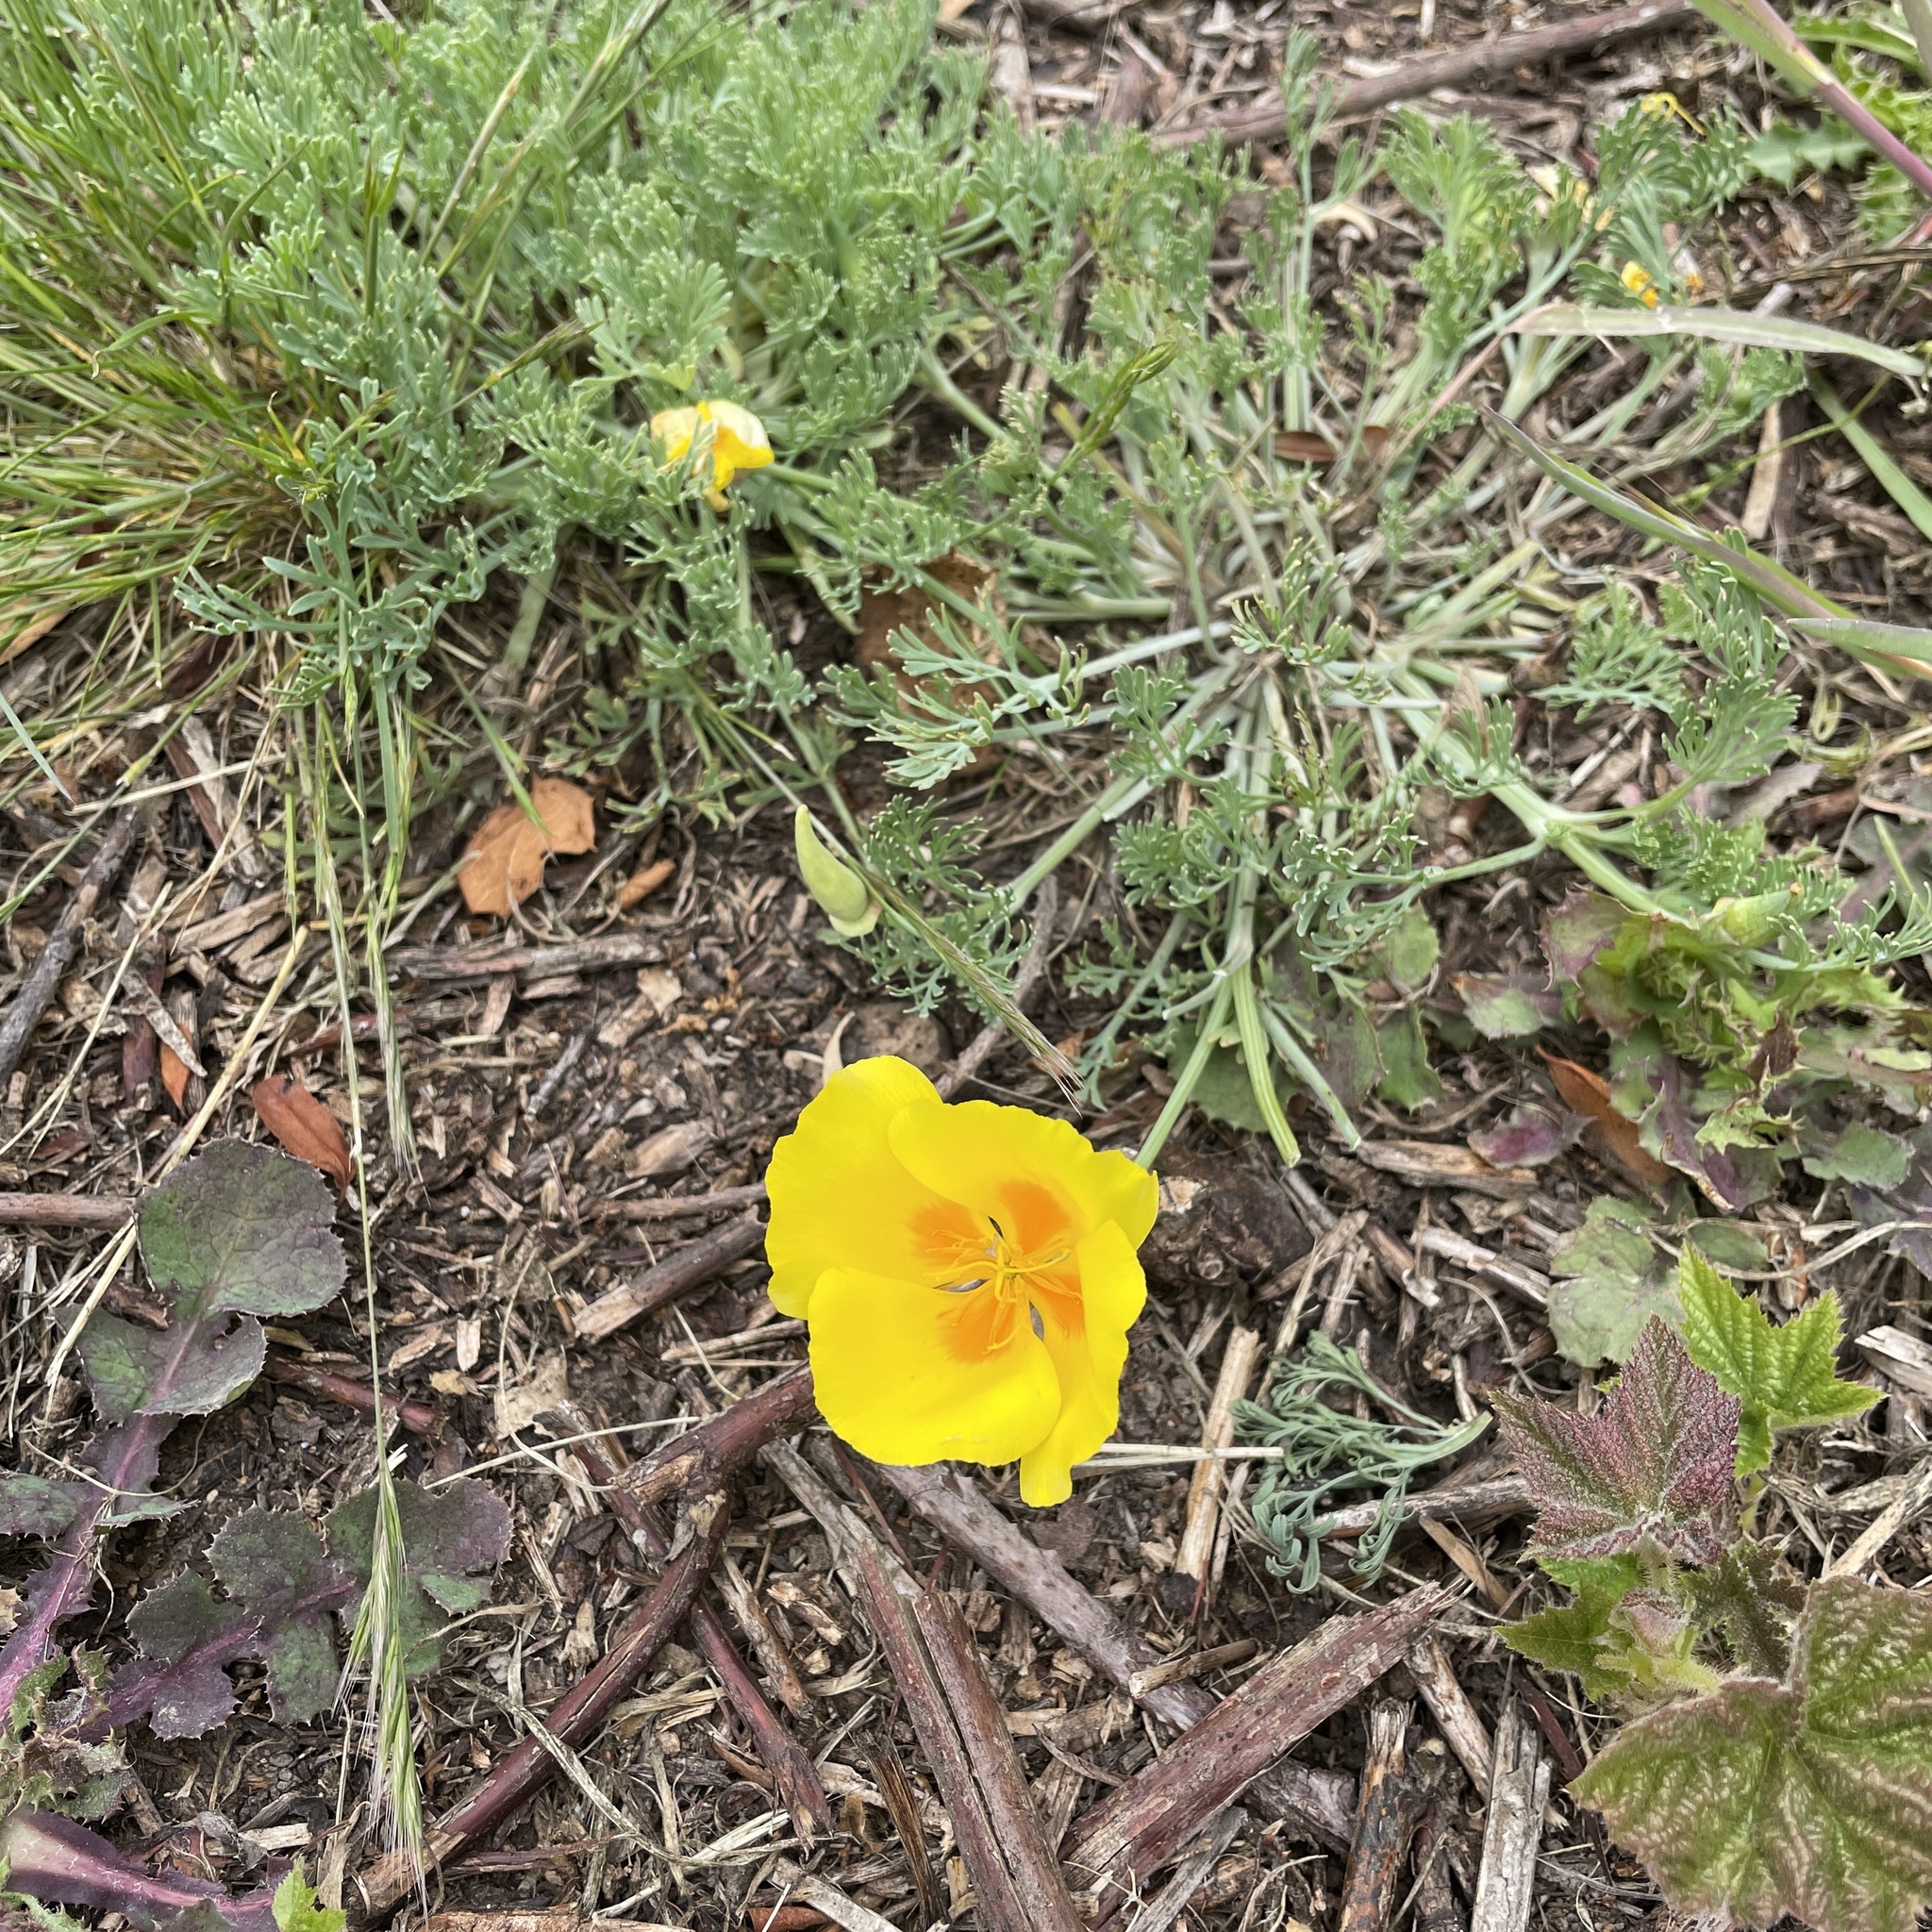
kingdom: Plantae
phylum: Tracheophyta
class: Magnoliopsida
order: Ranunculales
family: Papaveraceae
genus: Eschscholzia
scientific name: Eschscholzia californica
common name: California poppy
